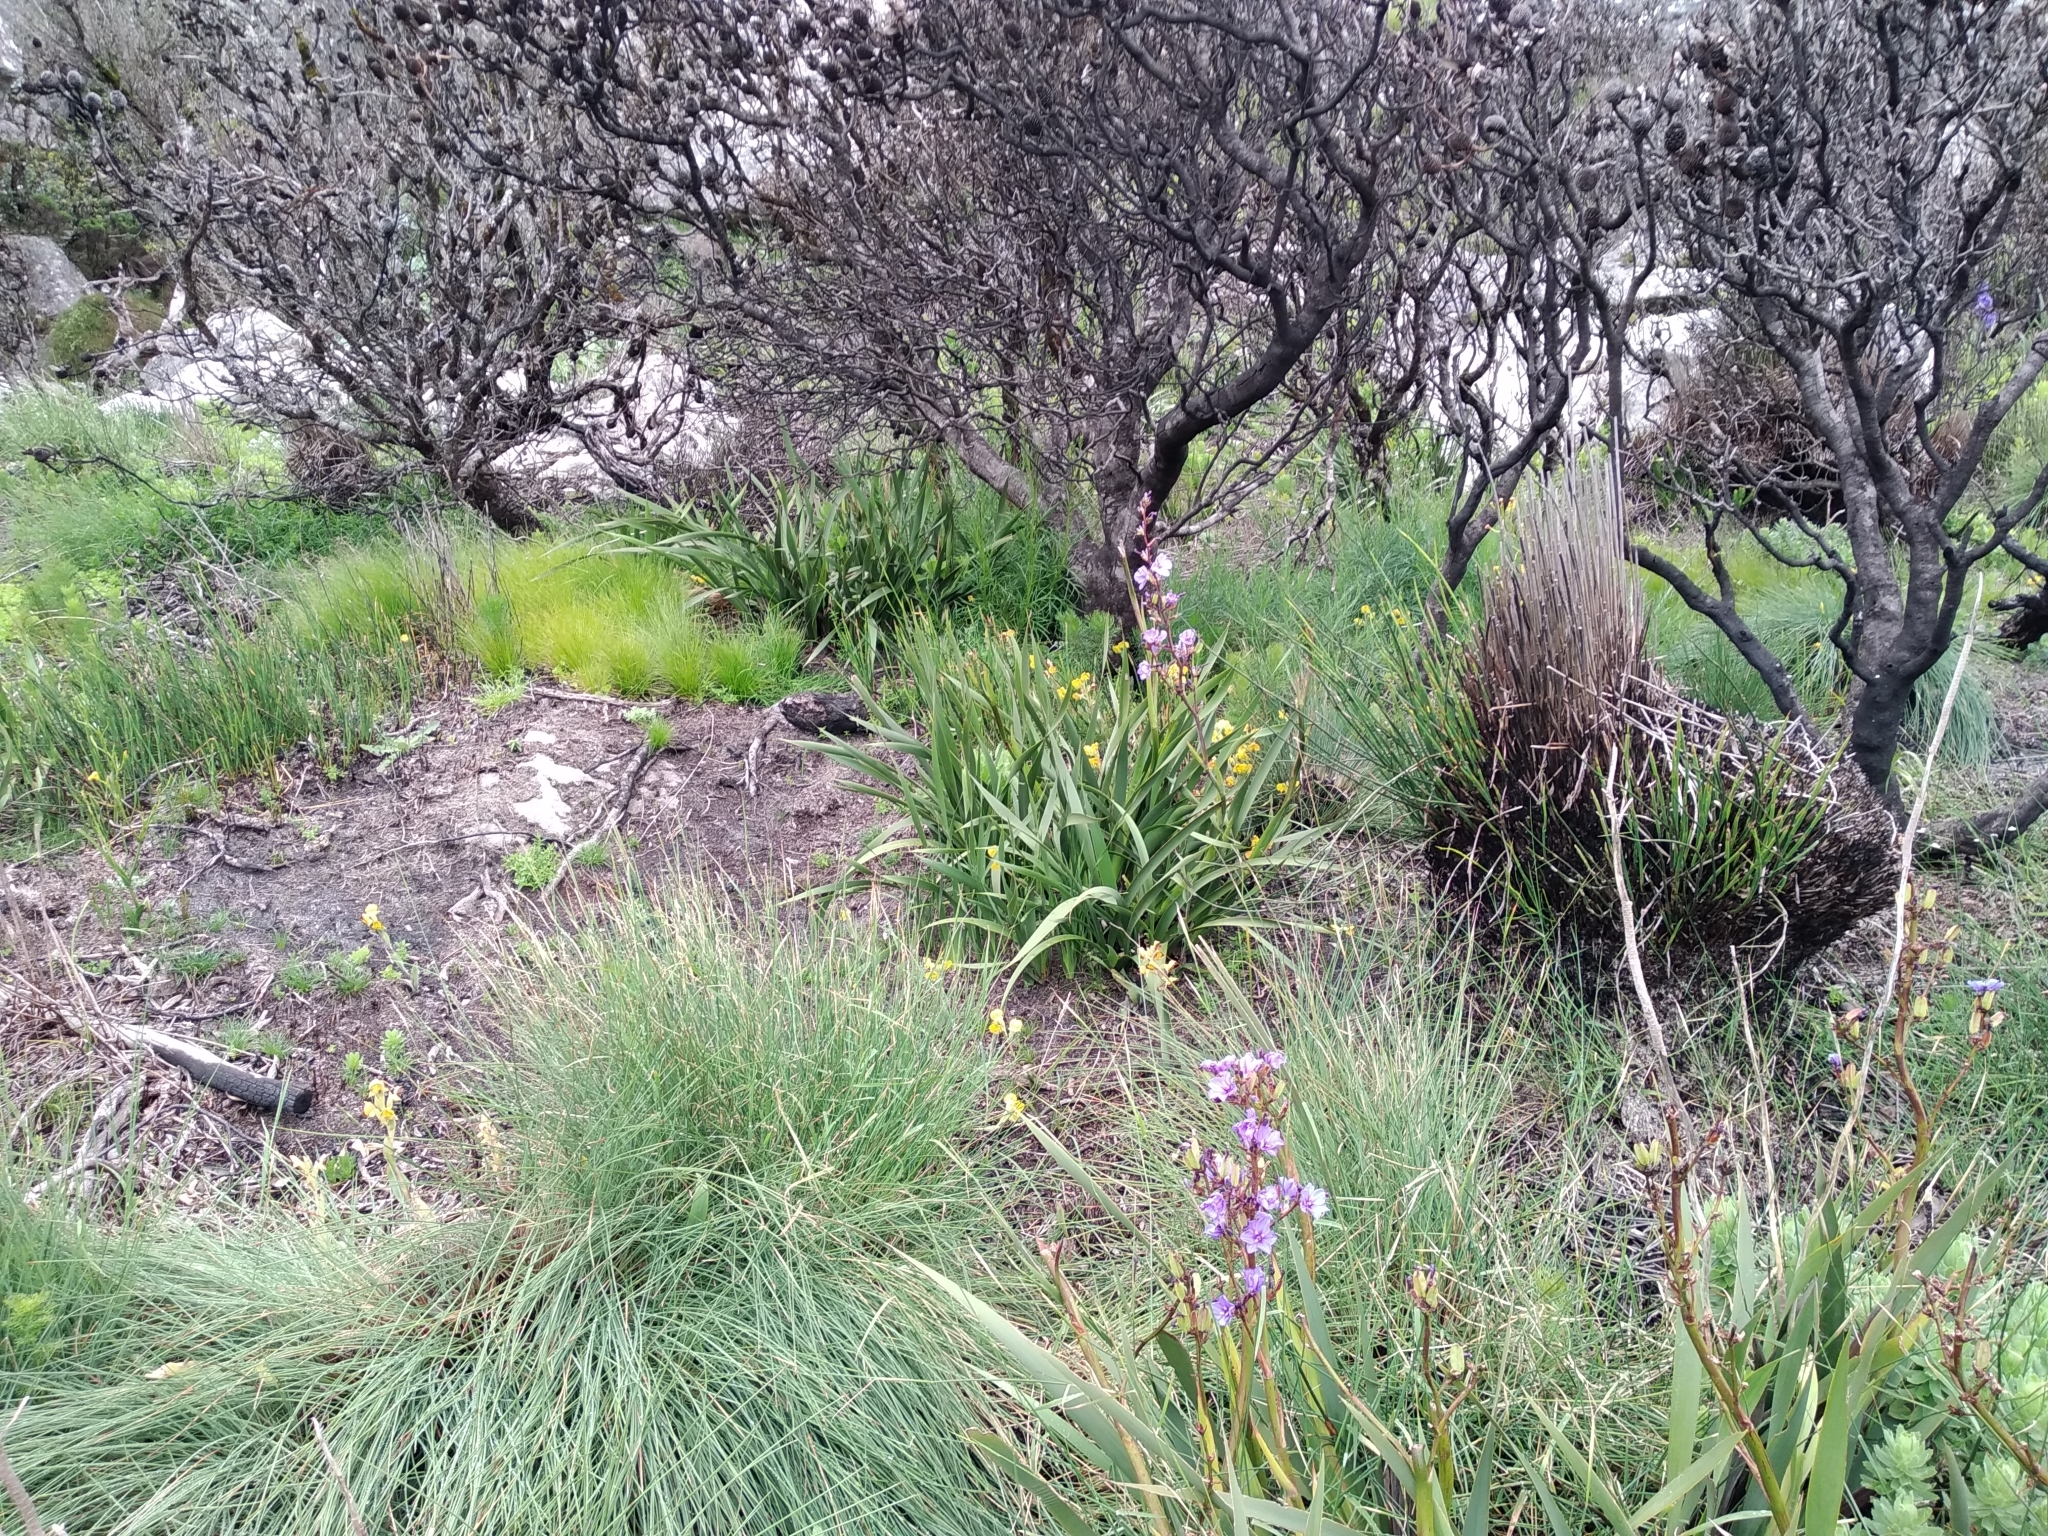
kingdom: Plantae
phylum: Tracheophyta
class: Liliopsida
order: Asparagales
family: Iridaceae
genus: Aristea
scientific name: Aristea bakeri
